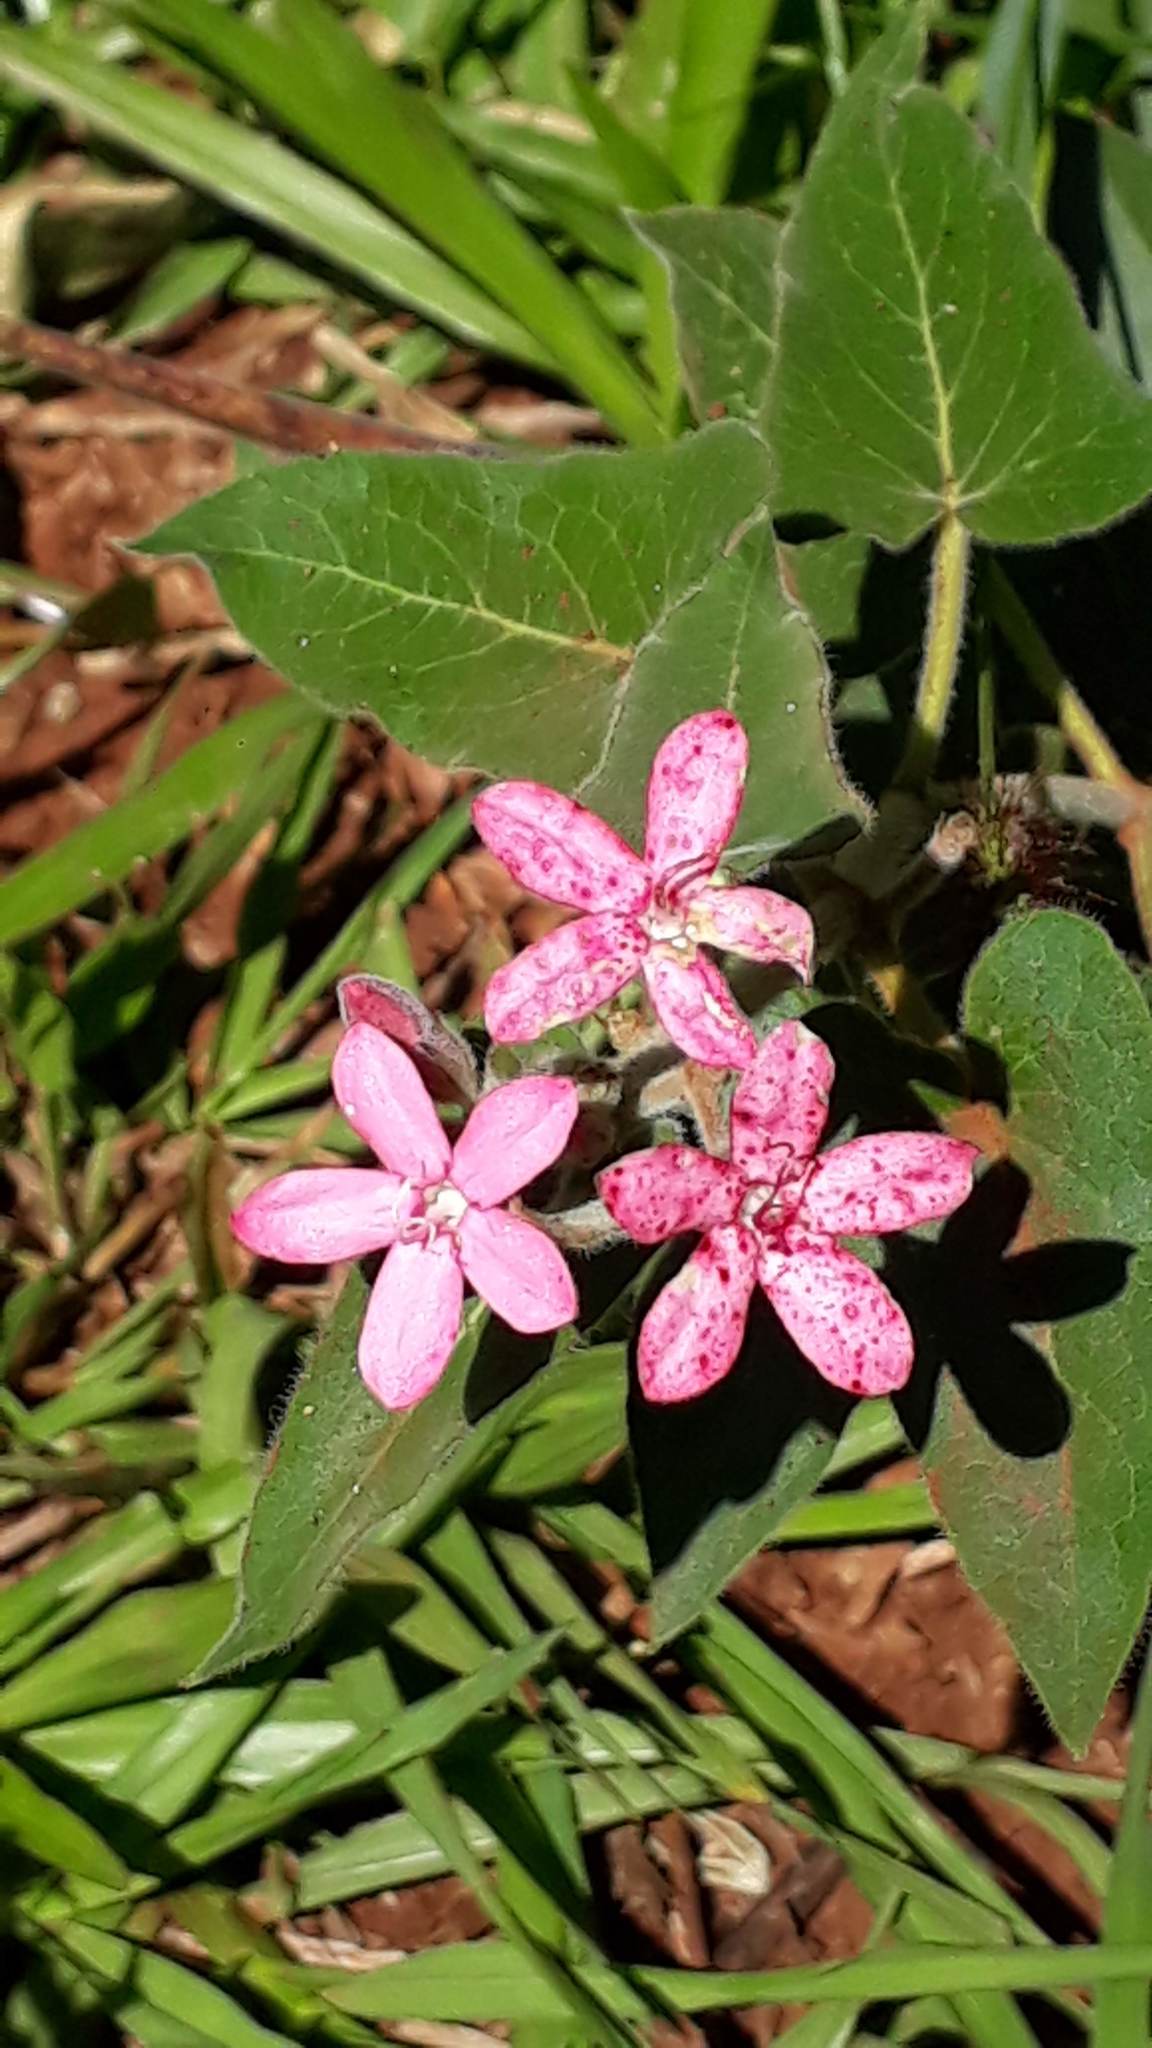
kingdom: Plantae
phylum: Tracheophyta
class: Magnoliopsida
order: Gentianales
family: Apocynaceae
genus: Oxypetalum
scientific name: Oxypetalum coccineum
